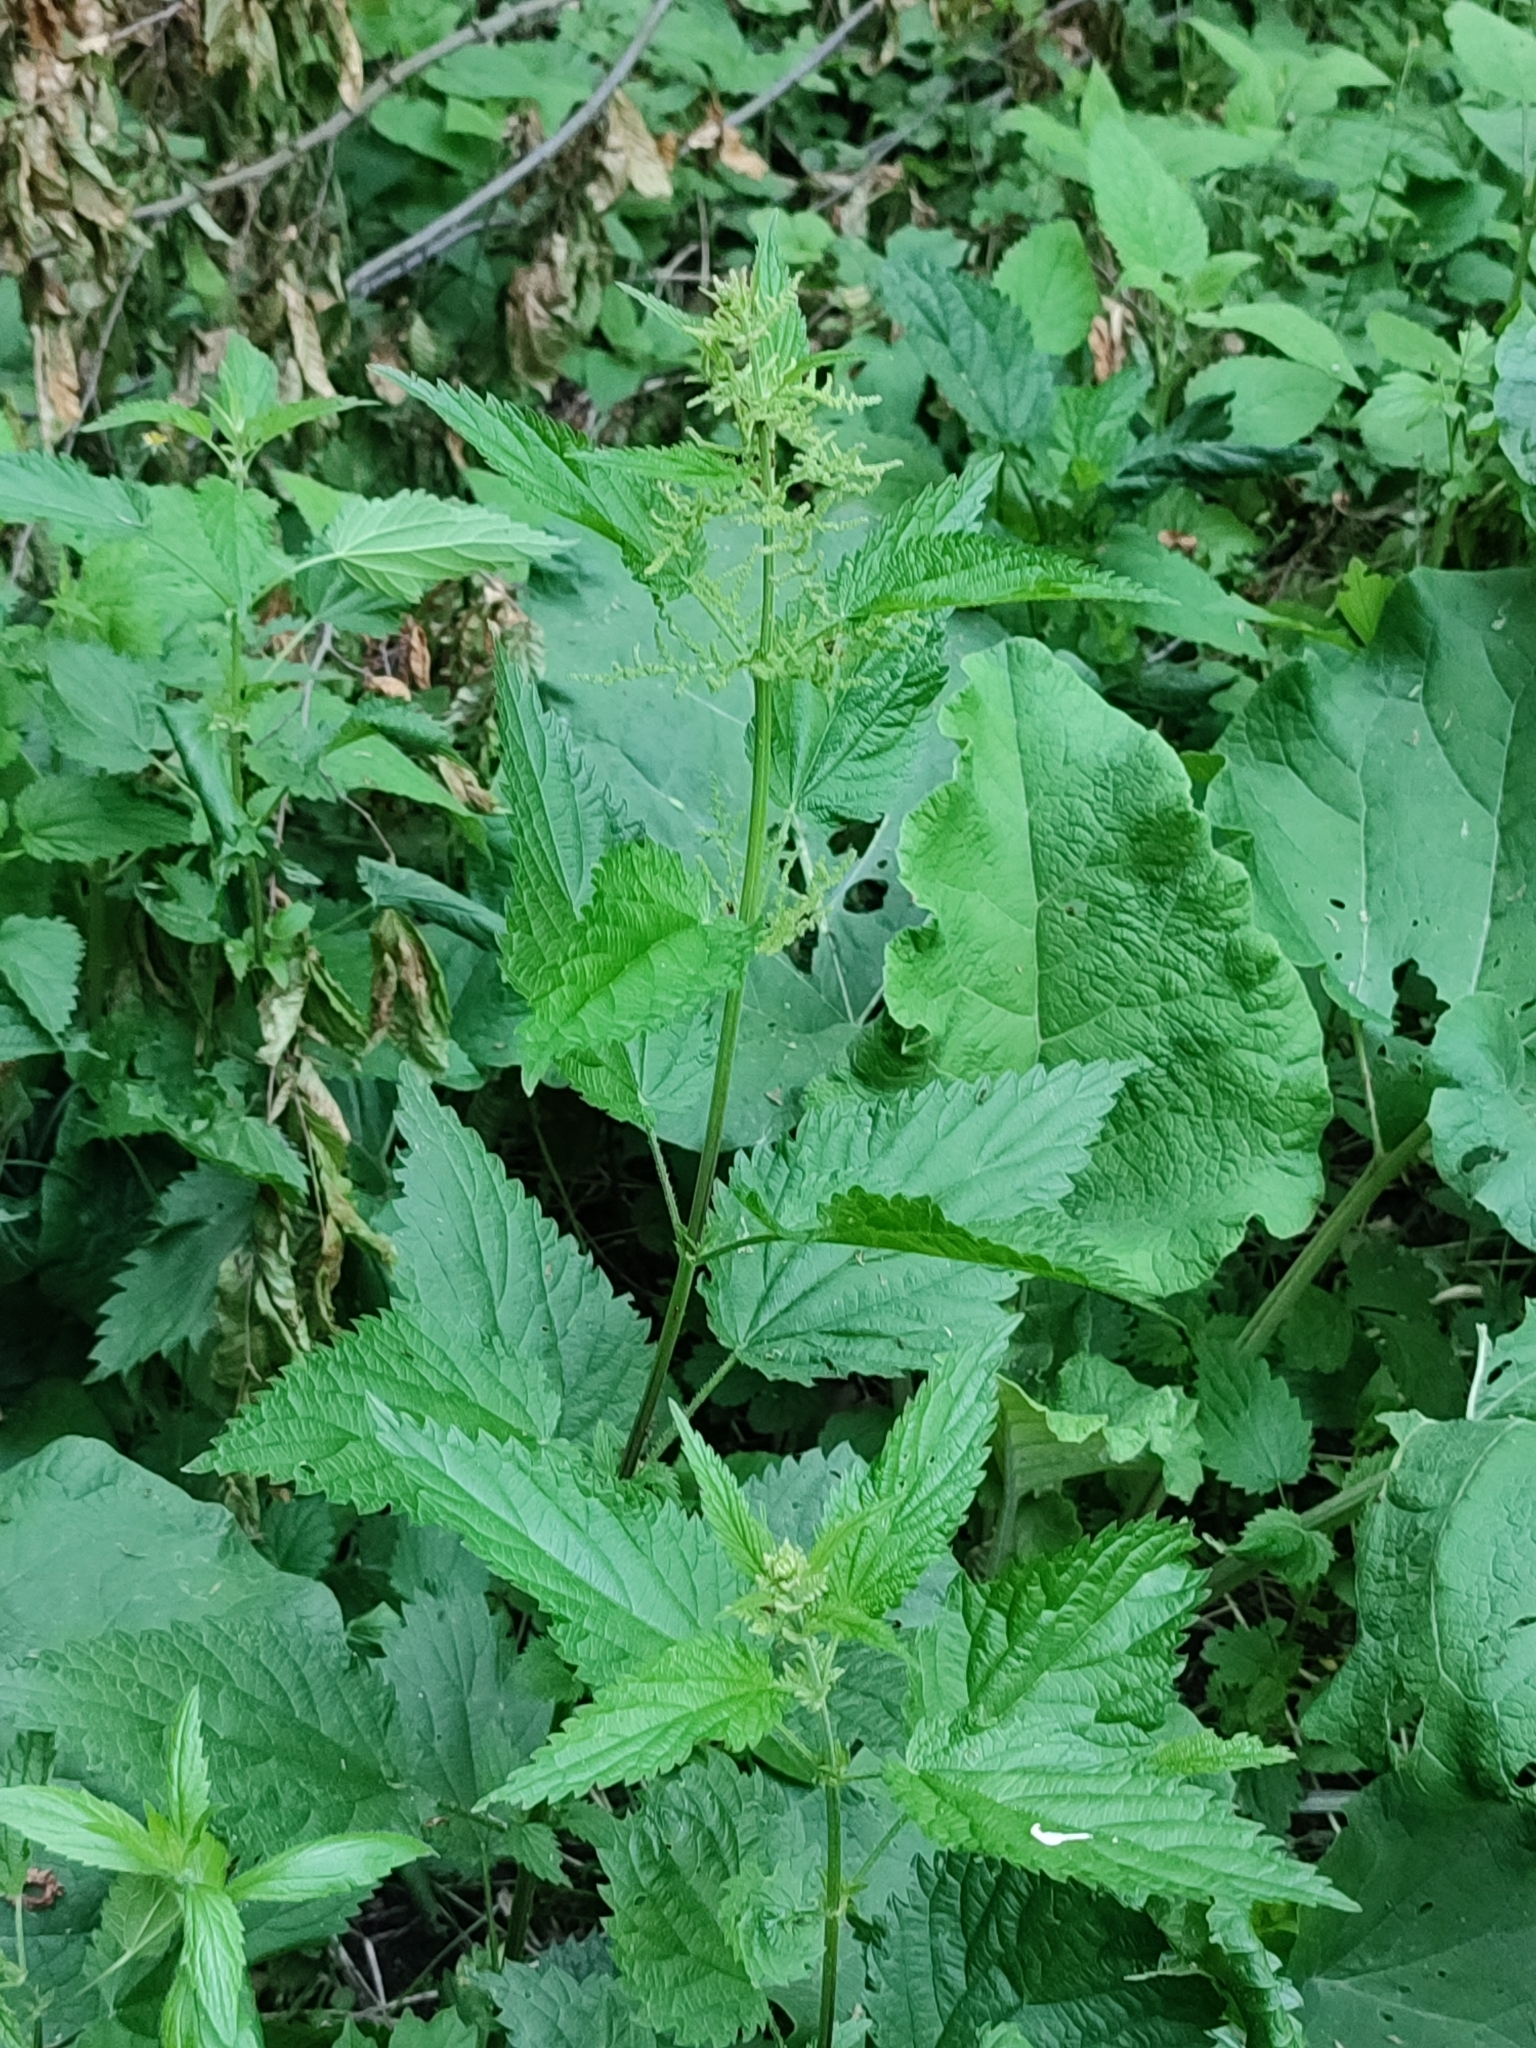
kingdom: Plantae
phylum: Tracheophyta
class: Magnoliopsida
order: Rosales
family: Urticaceae
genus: Urtica
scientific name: Urtica dioica
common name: Common nettle
